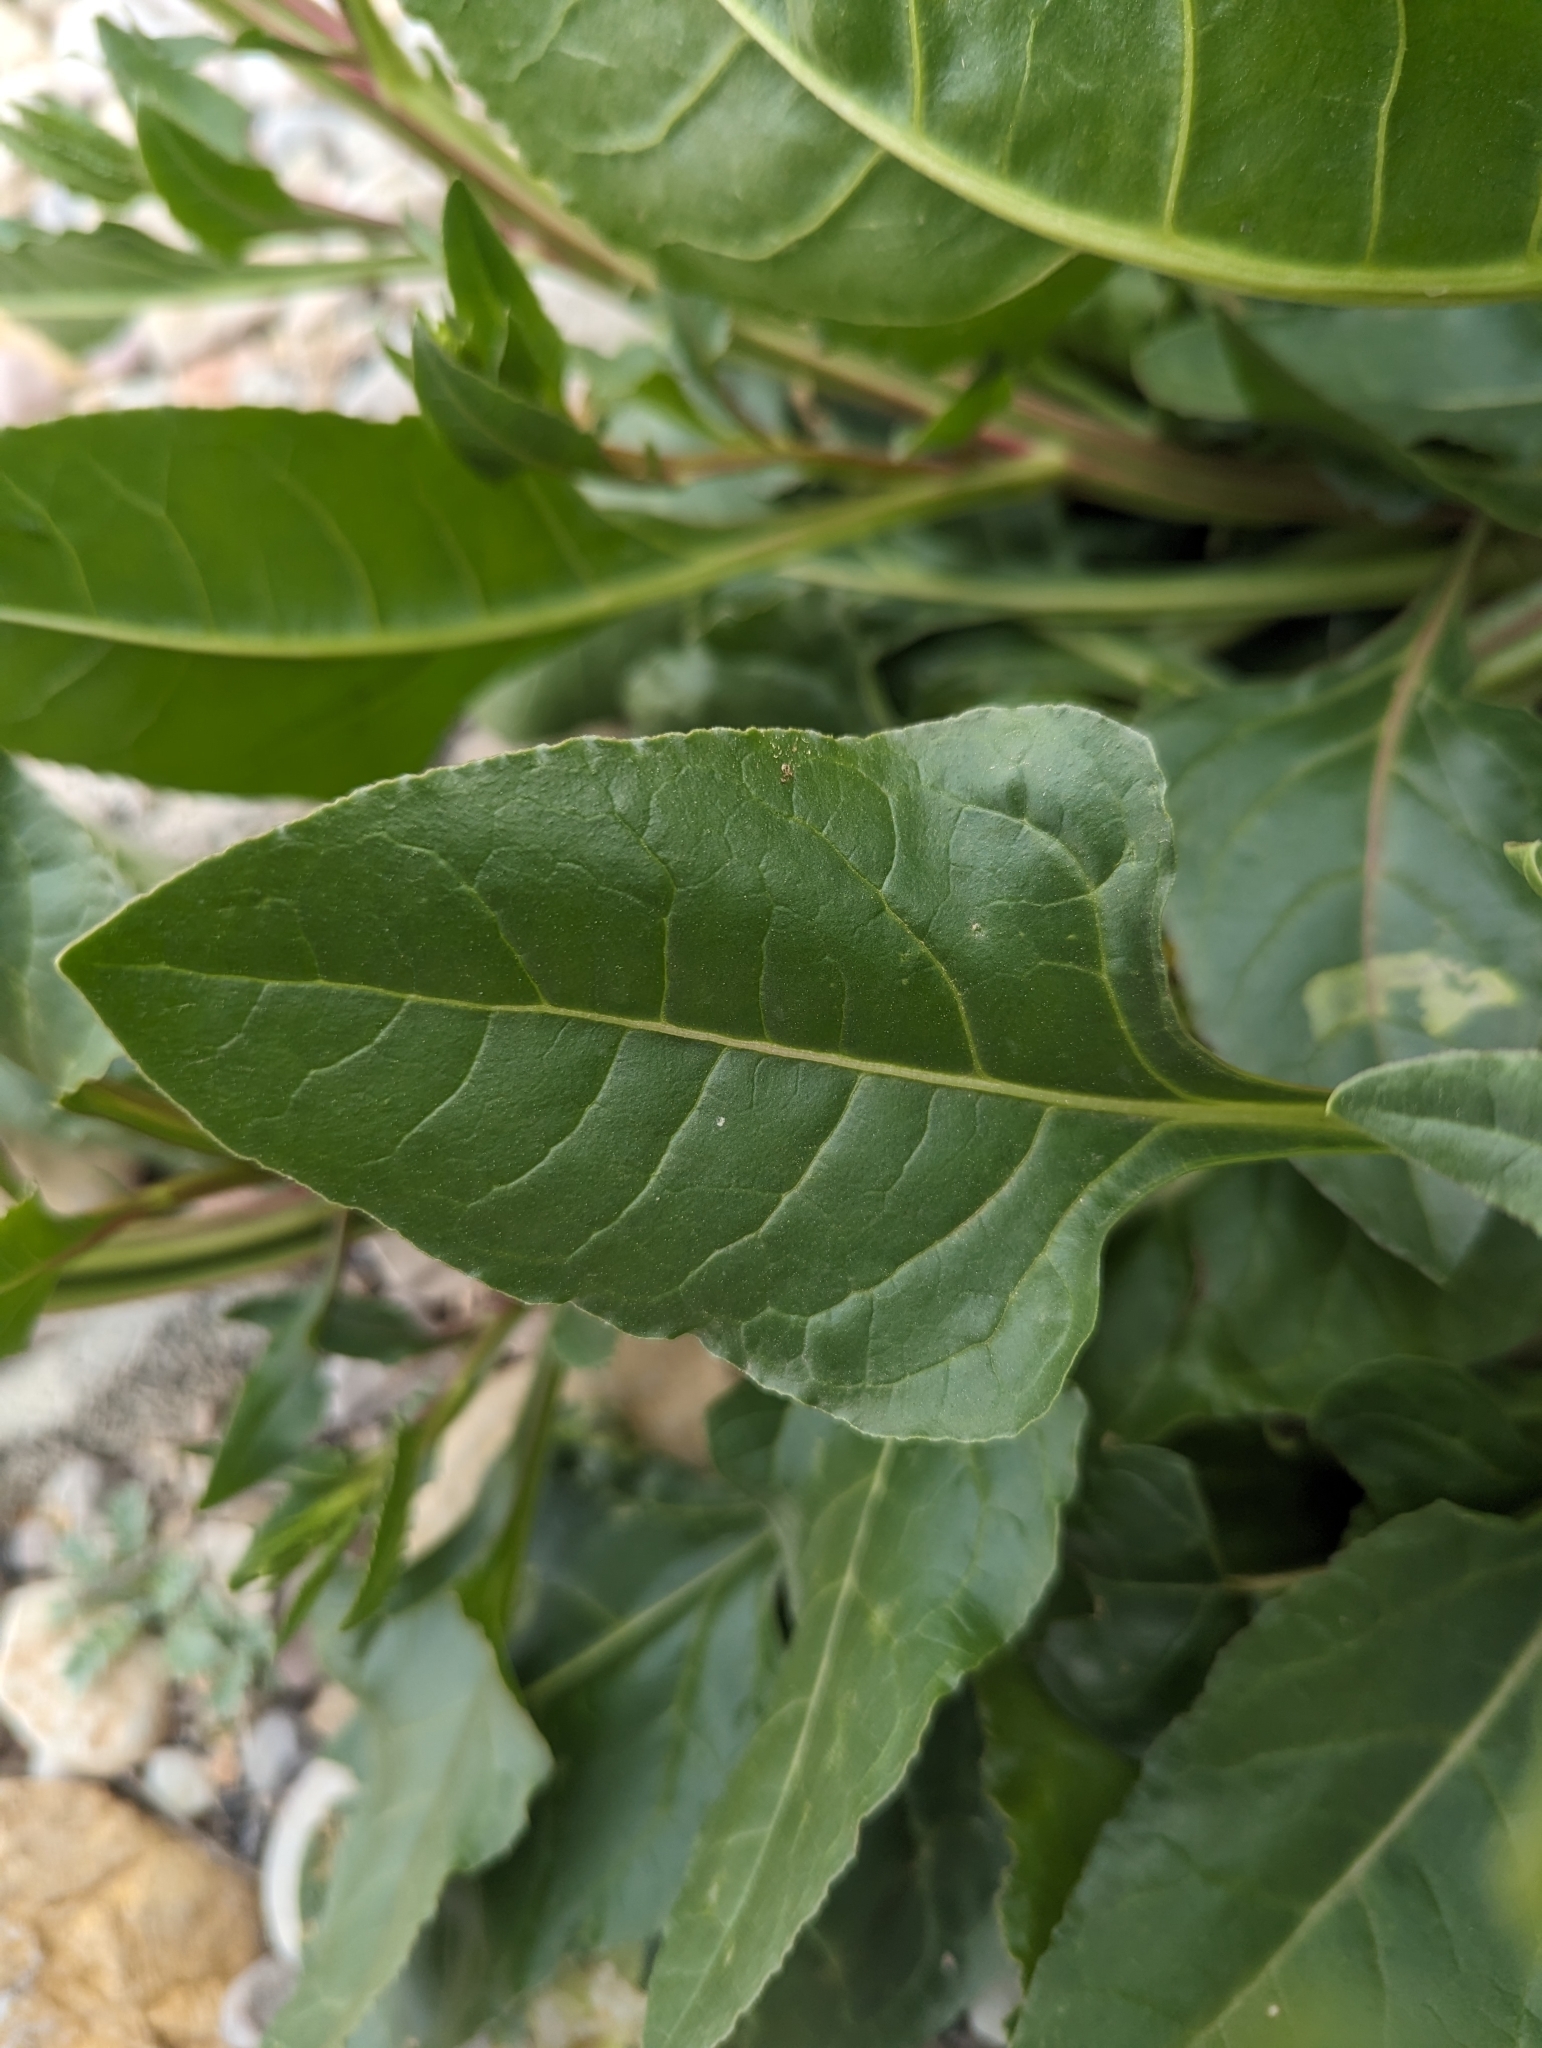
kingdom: Plantae
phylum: Tracheophyta
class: Magnoliopsida
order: Caryophyllales
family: Amaranthaceae
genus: Beta
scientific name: Beta vulgaris
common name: Beet
